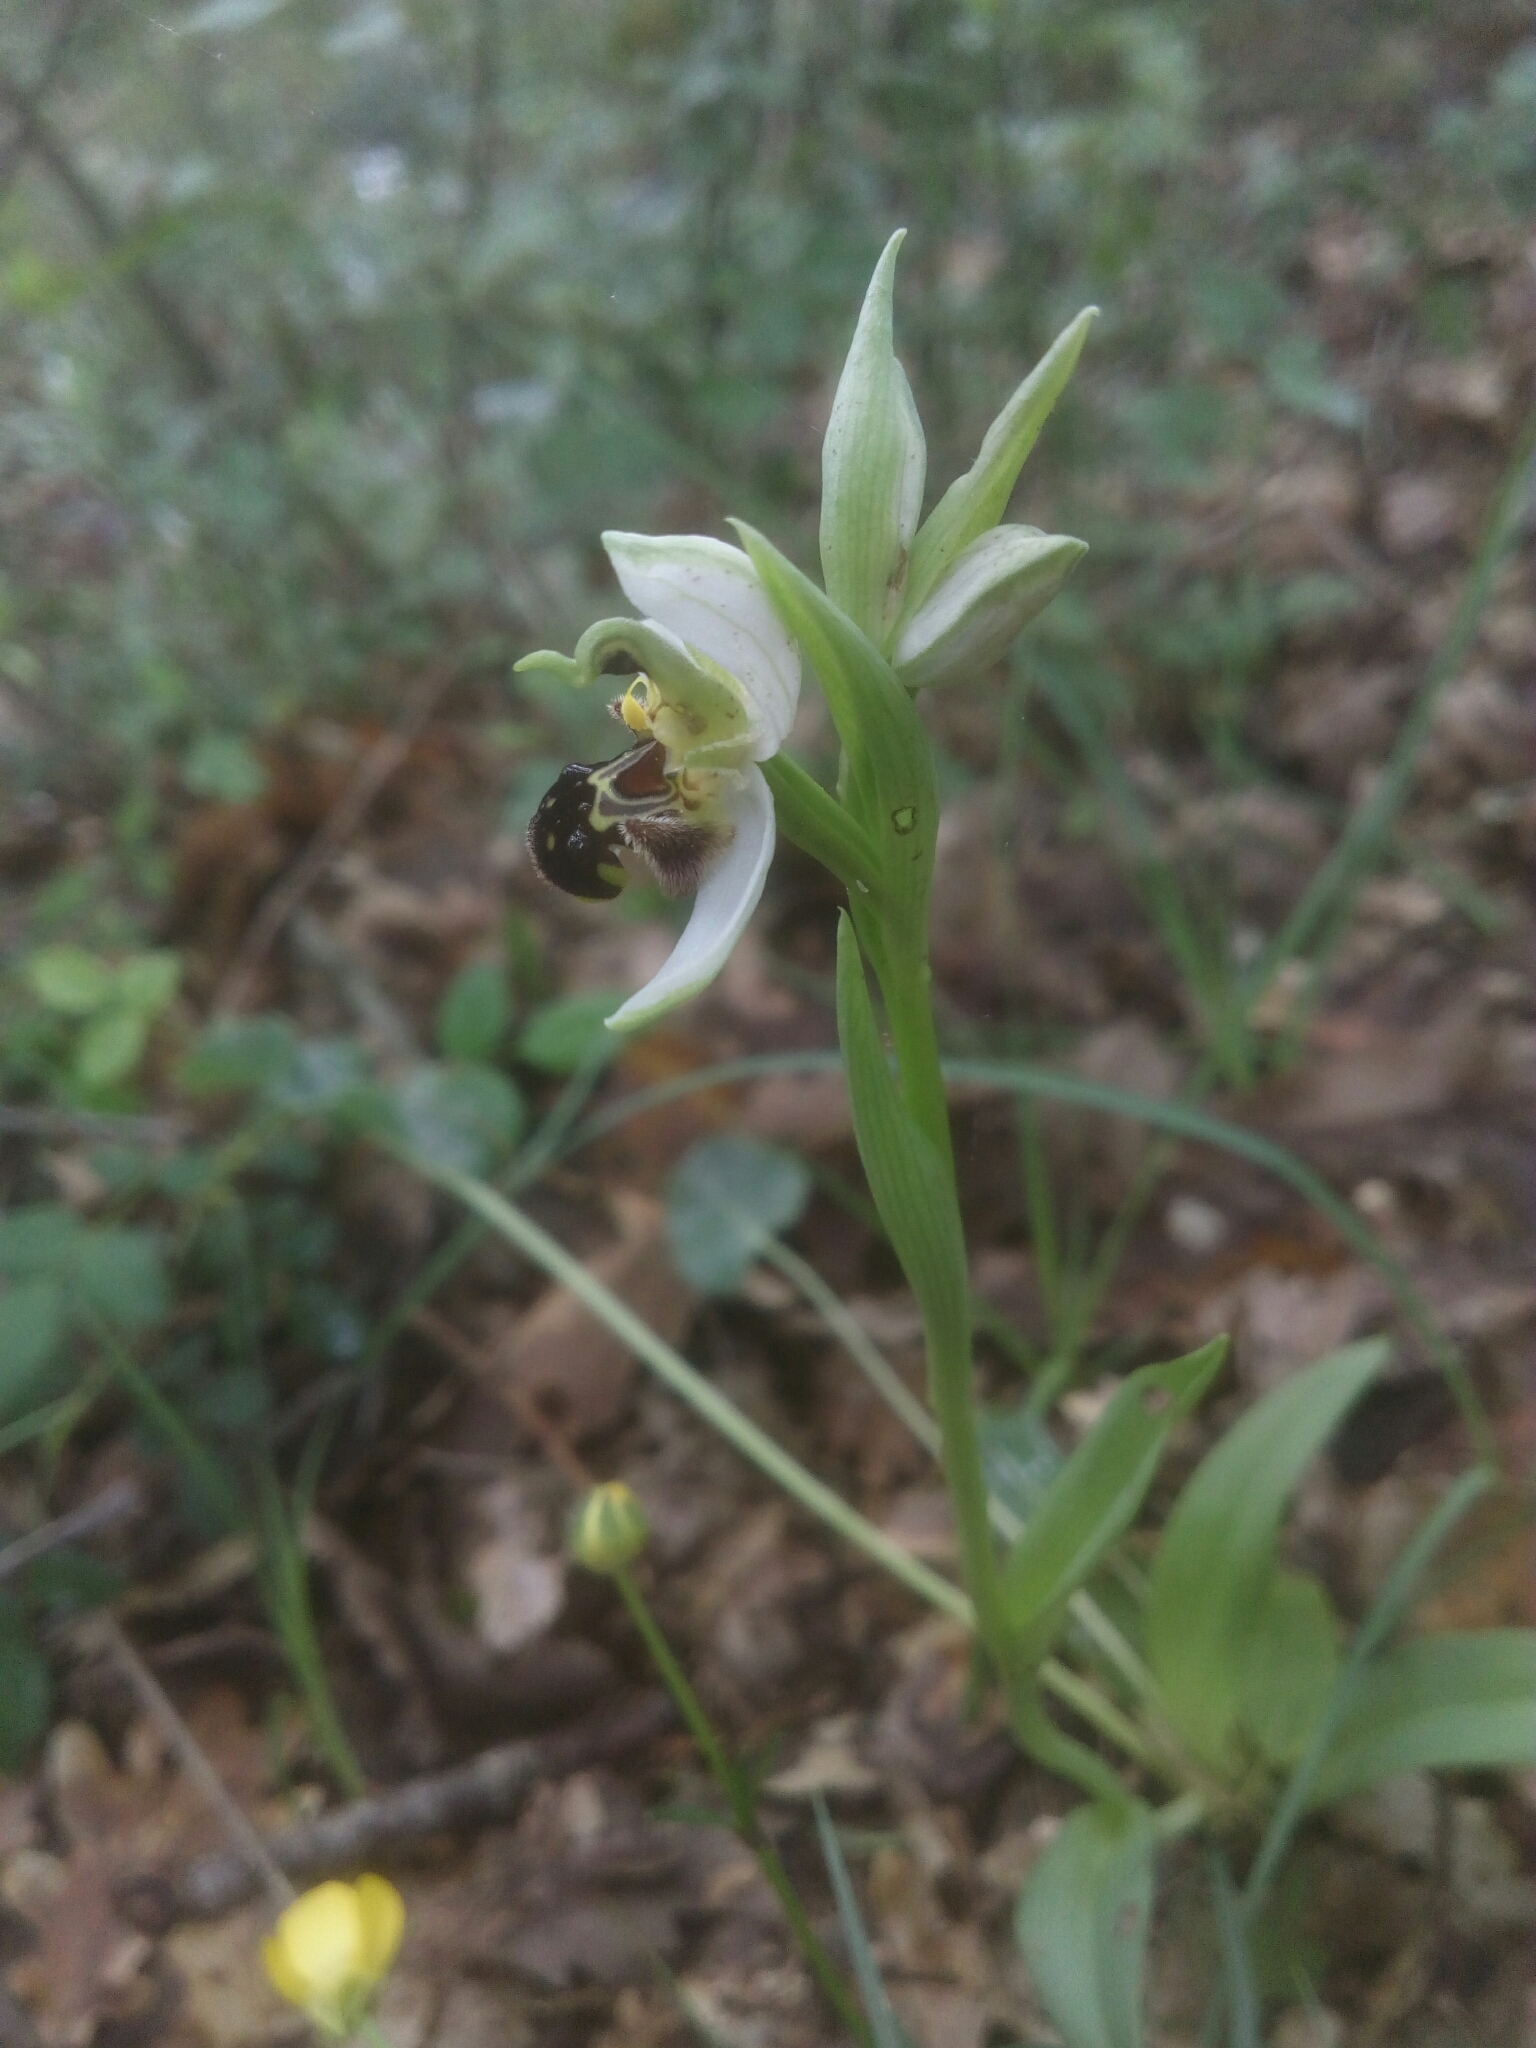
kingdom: Plantae
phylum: Tracheophyta
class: Liliopsida
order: Asparagales
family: Orchidaceae
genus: Ophrys
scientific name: Ophrys apifera
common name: Bee orchid
